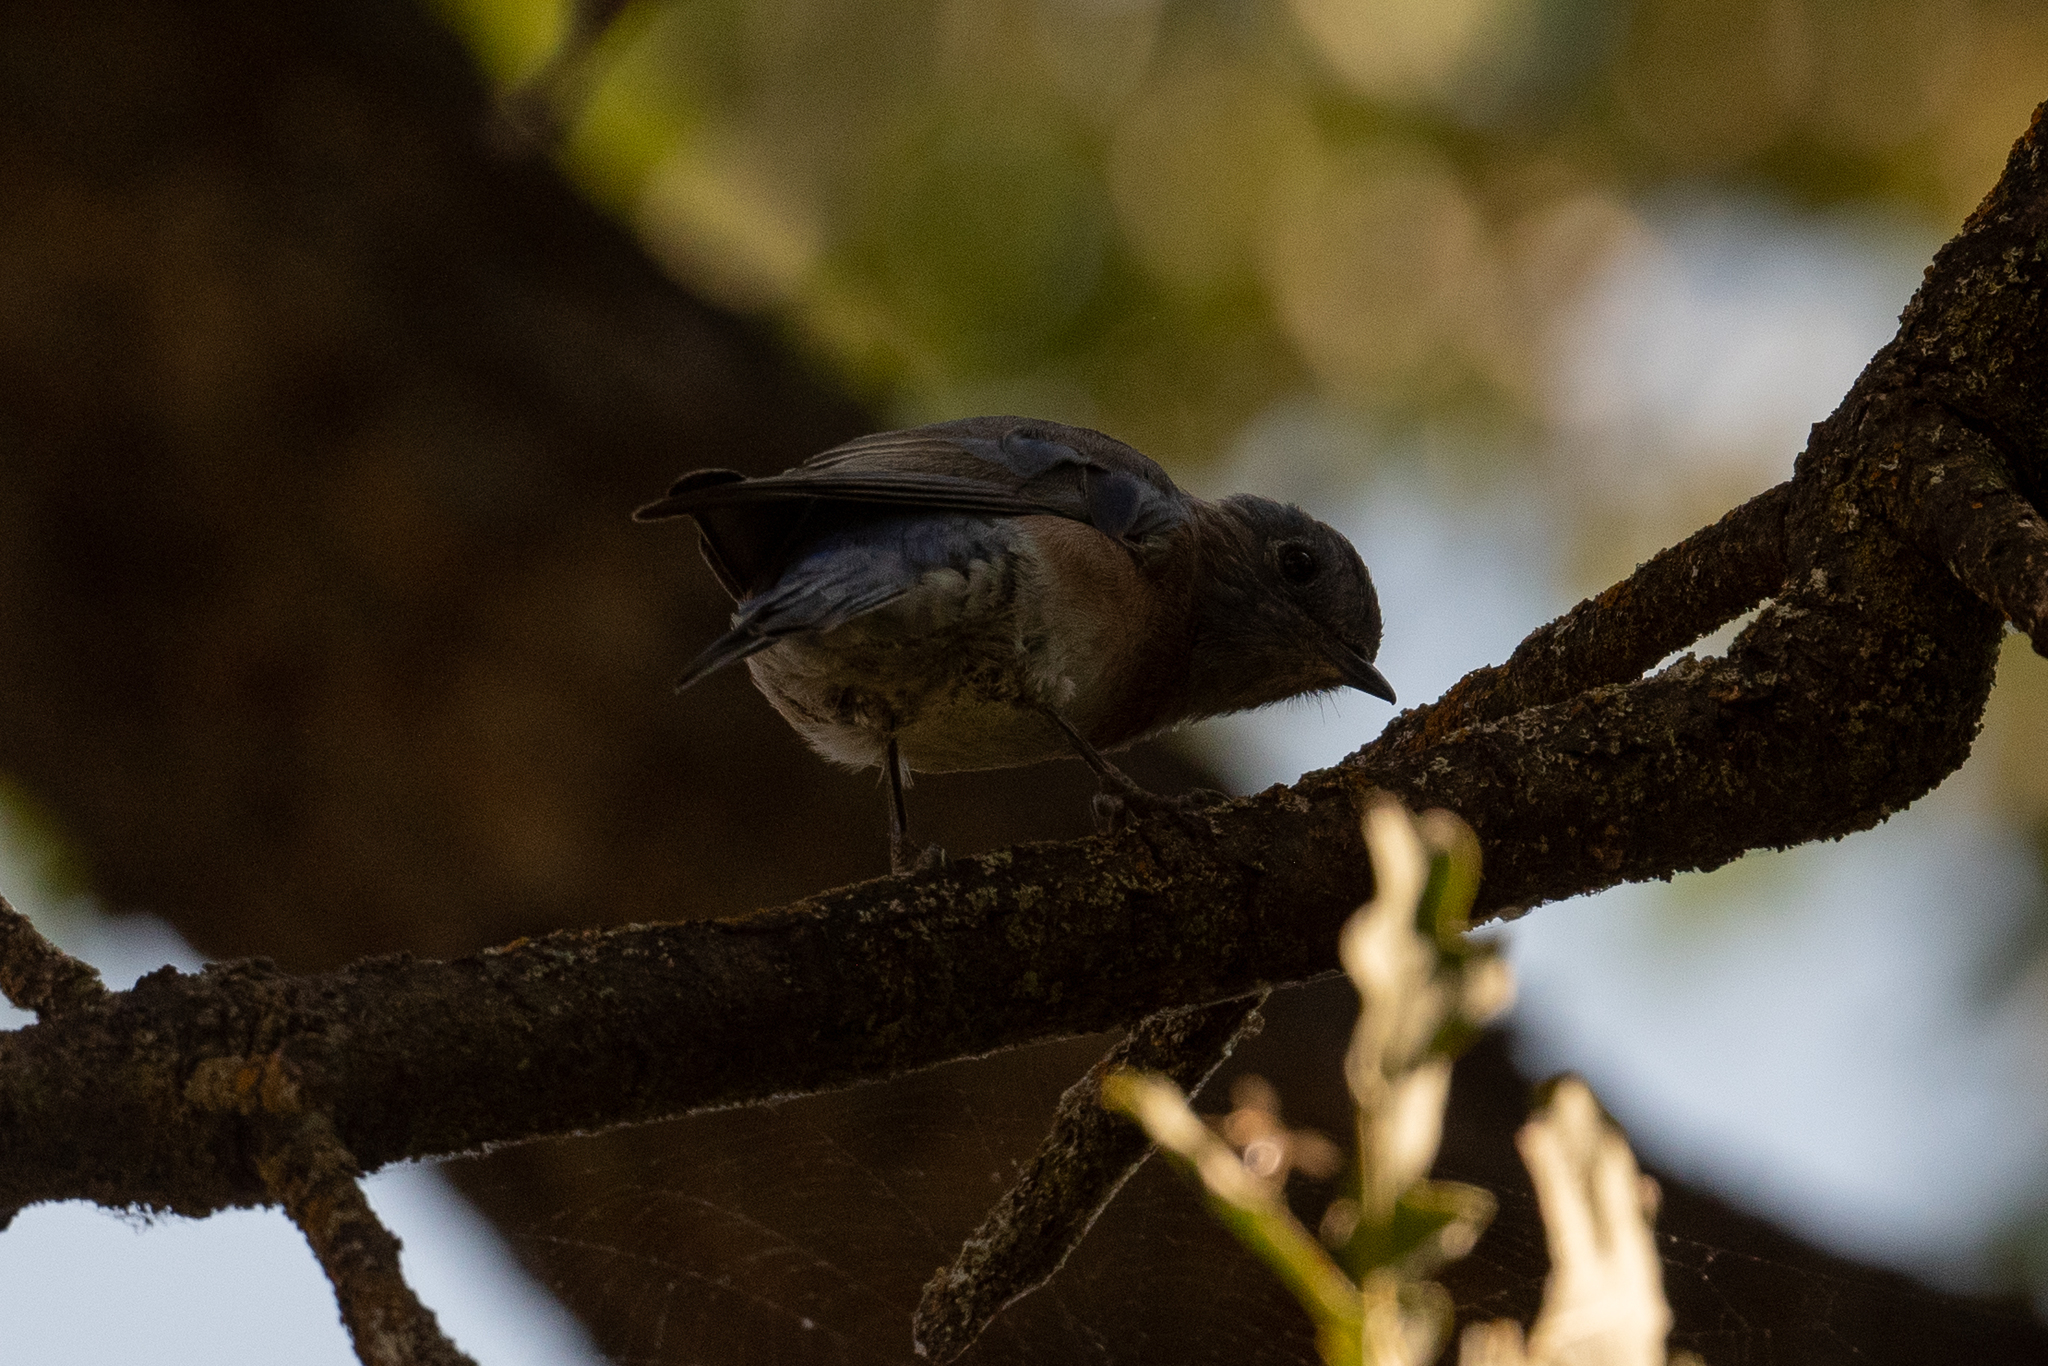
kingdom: Animalia
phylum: Chordata
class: Aves
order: Passeriformes
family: Turdidae
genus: Sialia
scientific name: Sialia mexicana
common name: Western bluebird
